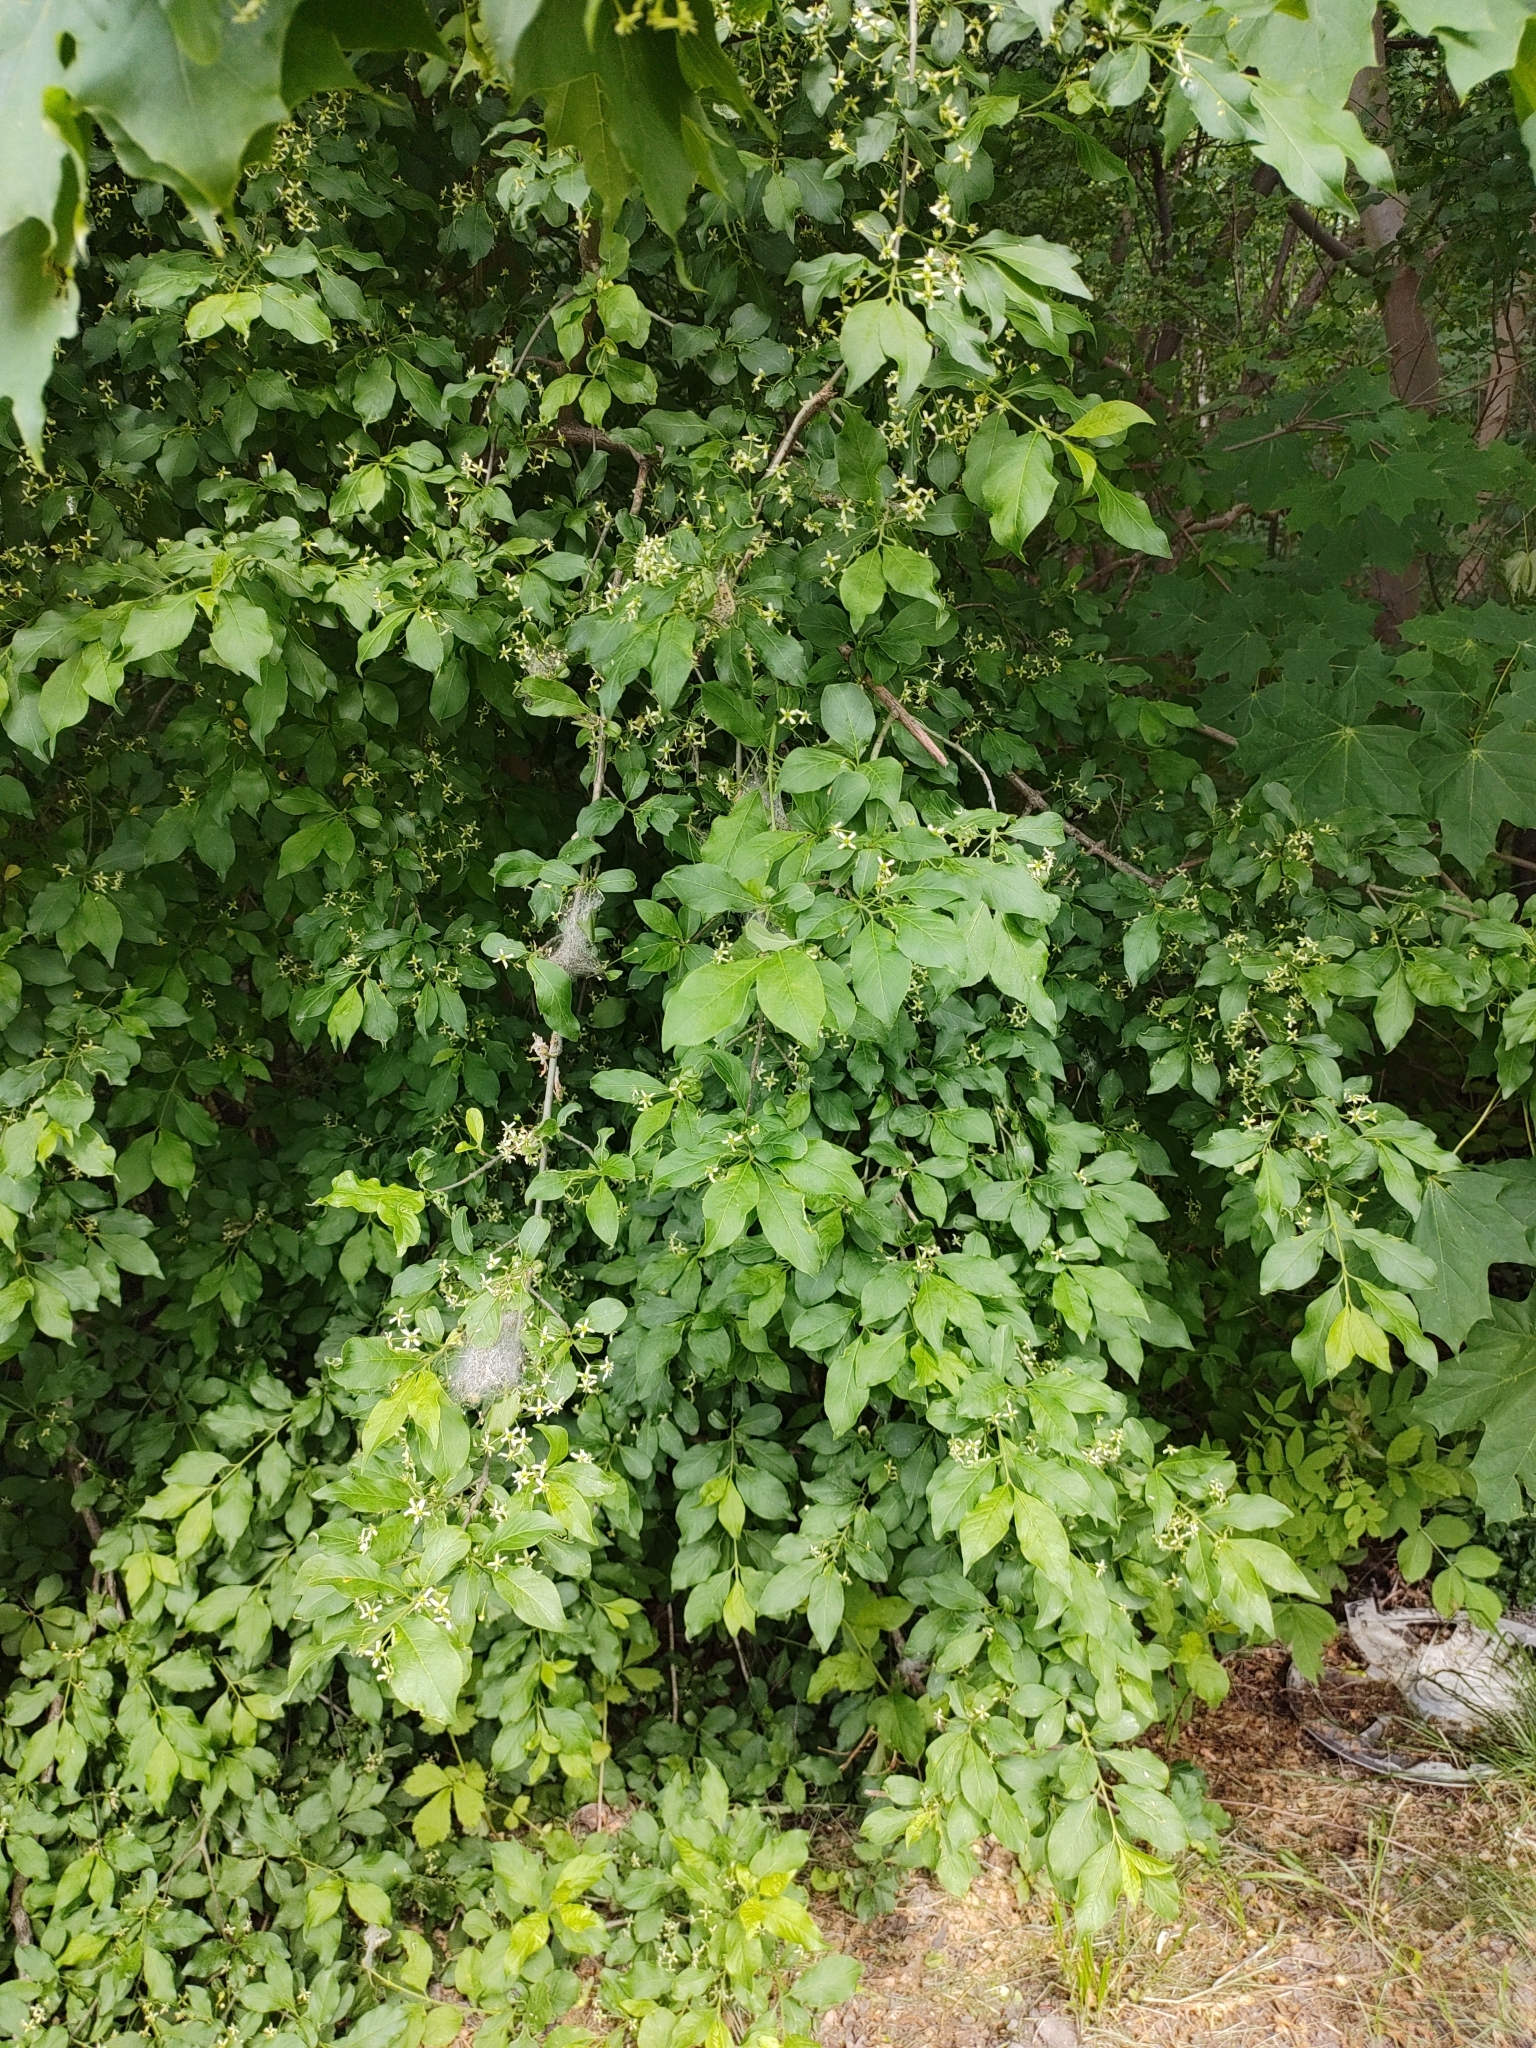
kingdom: Plantae
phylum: Tracheophyta
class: Magnoliopsida
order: Celastrales
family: Celastraceae
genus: Euonymus
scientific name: Euonymus europaeus
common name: Spindle
